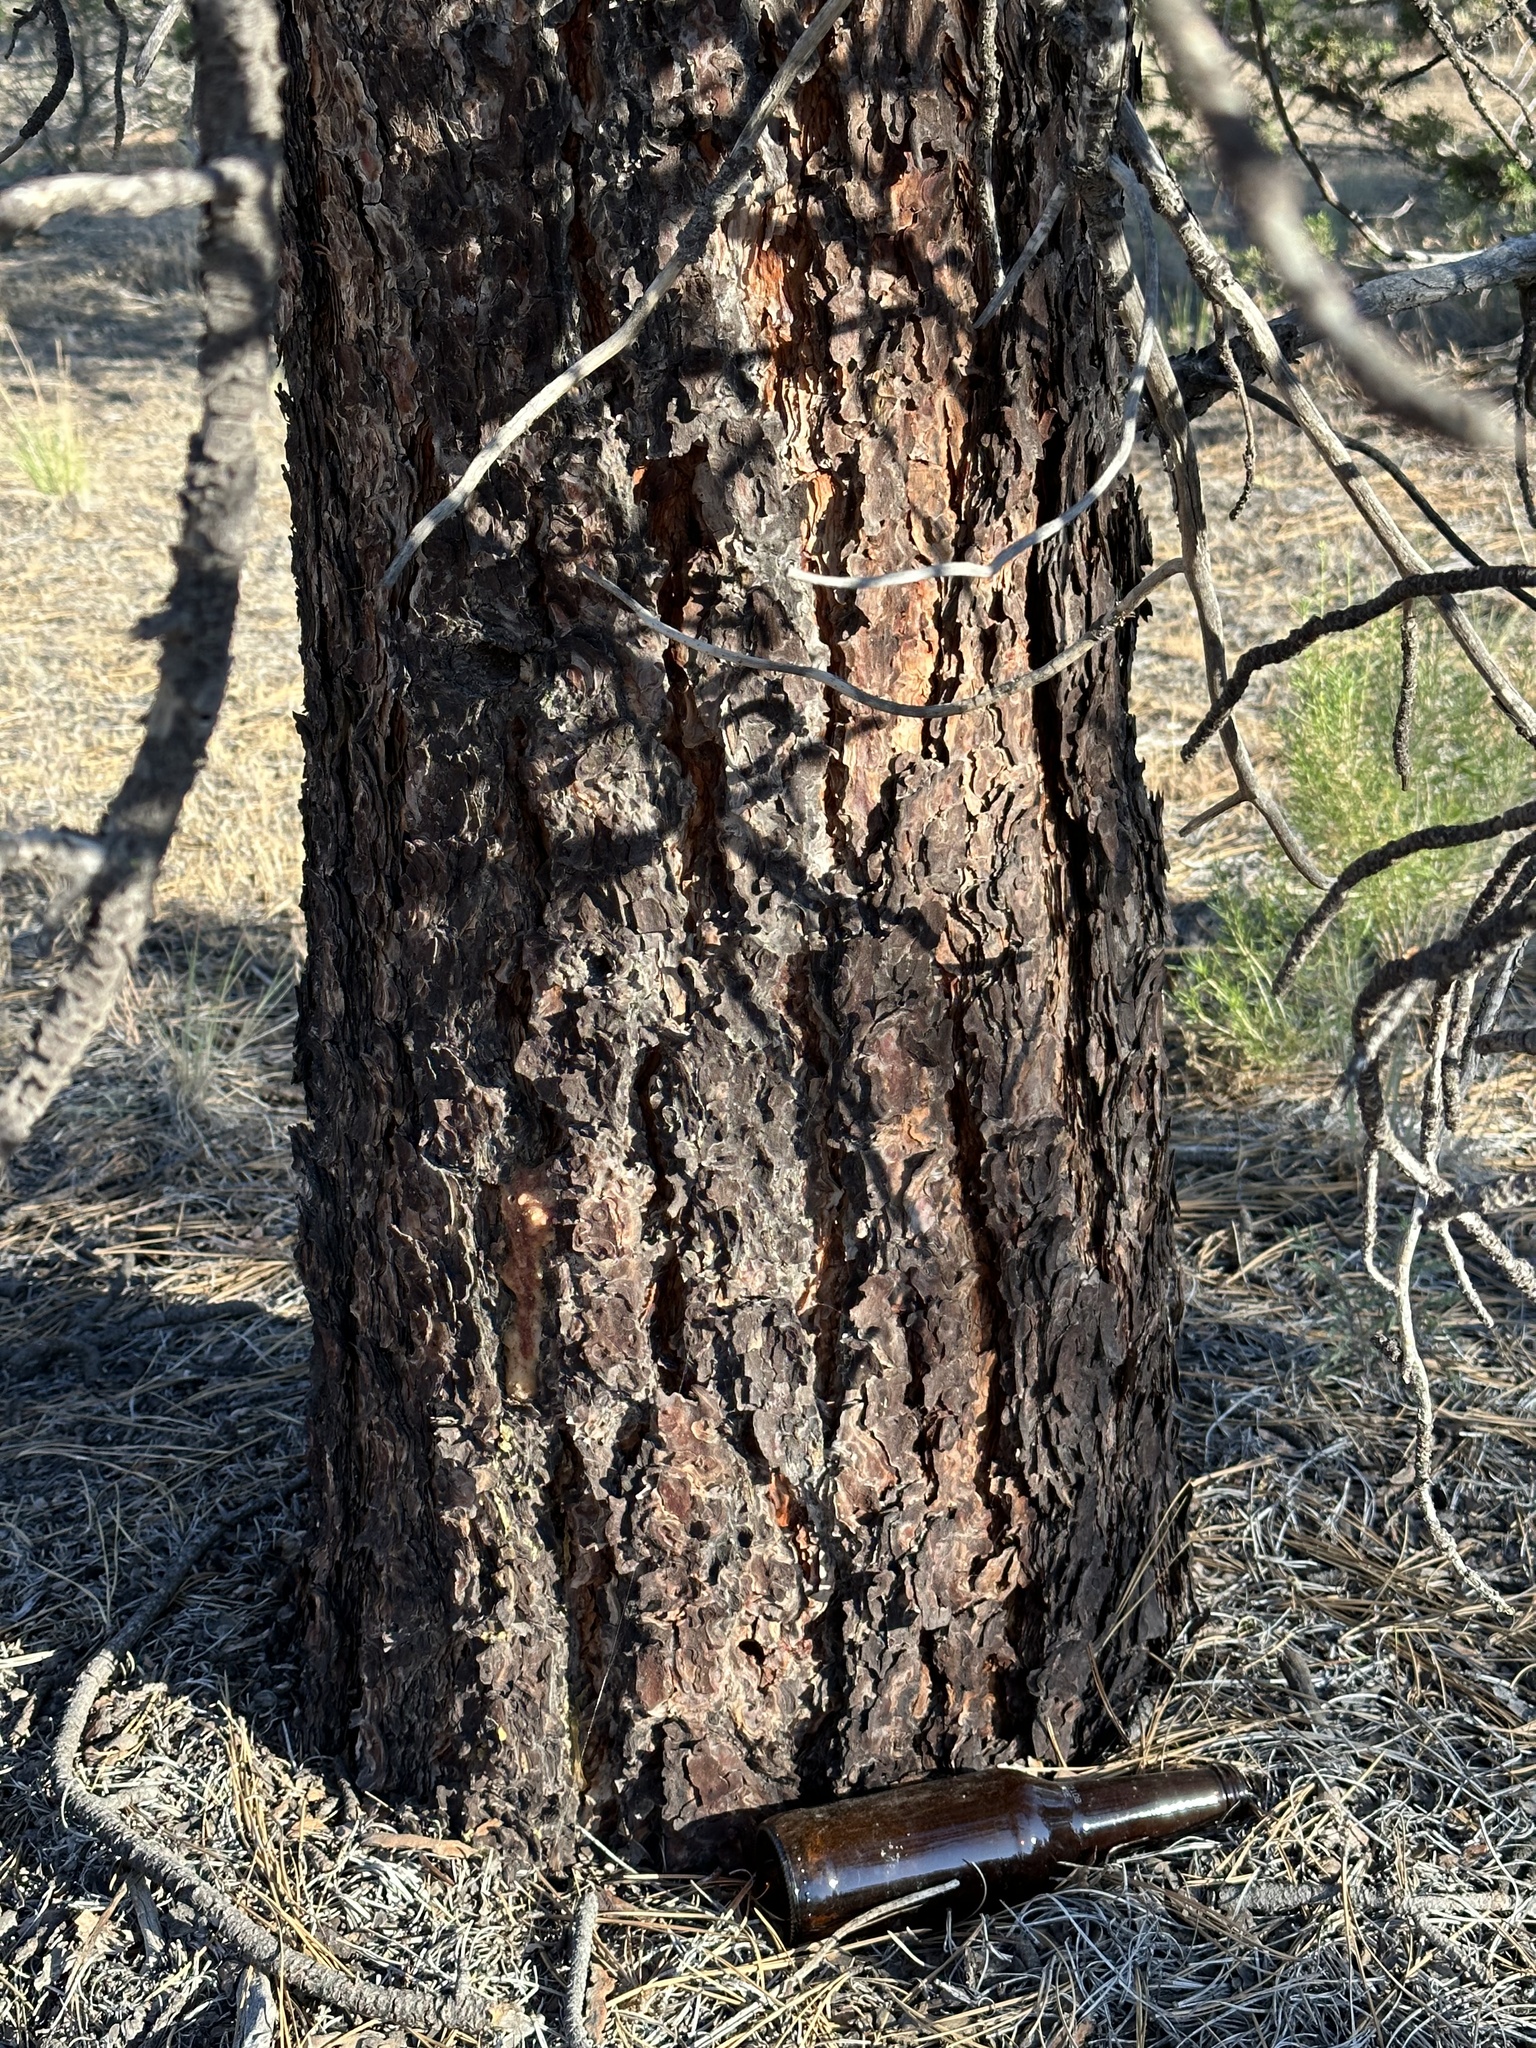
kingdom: Plantae
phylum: Tracheophyta
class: Pinopsida
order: Pinales
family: Pinaceae
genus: Pinus
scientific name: Pinus ponderosa
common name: Western yellow-pine
